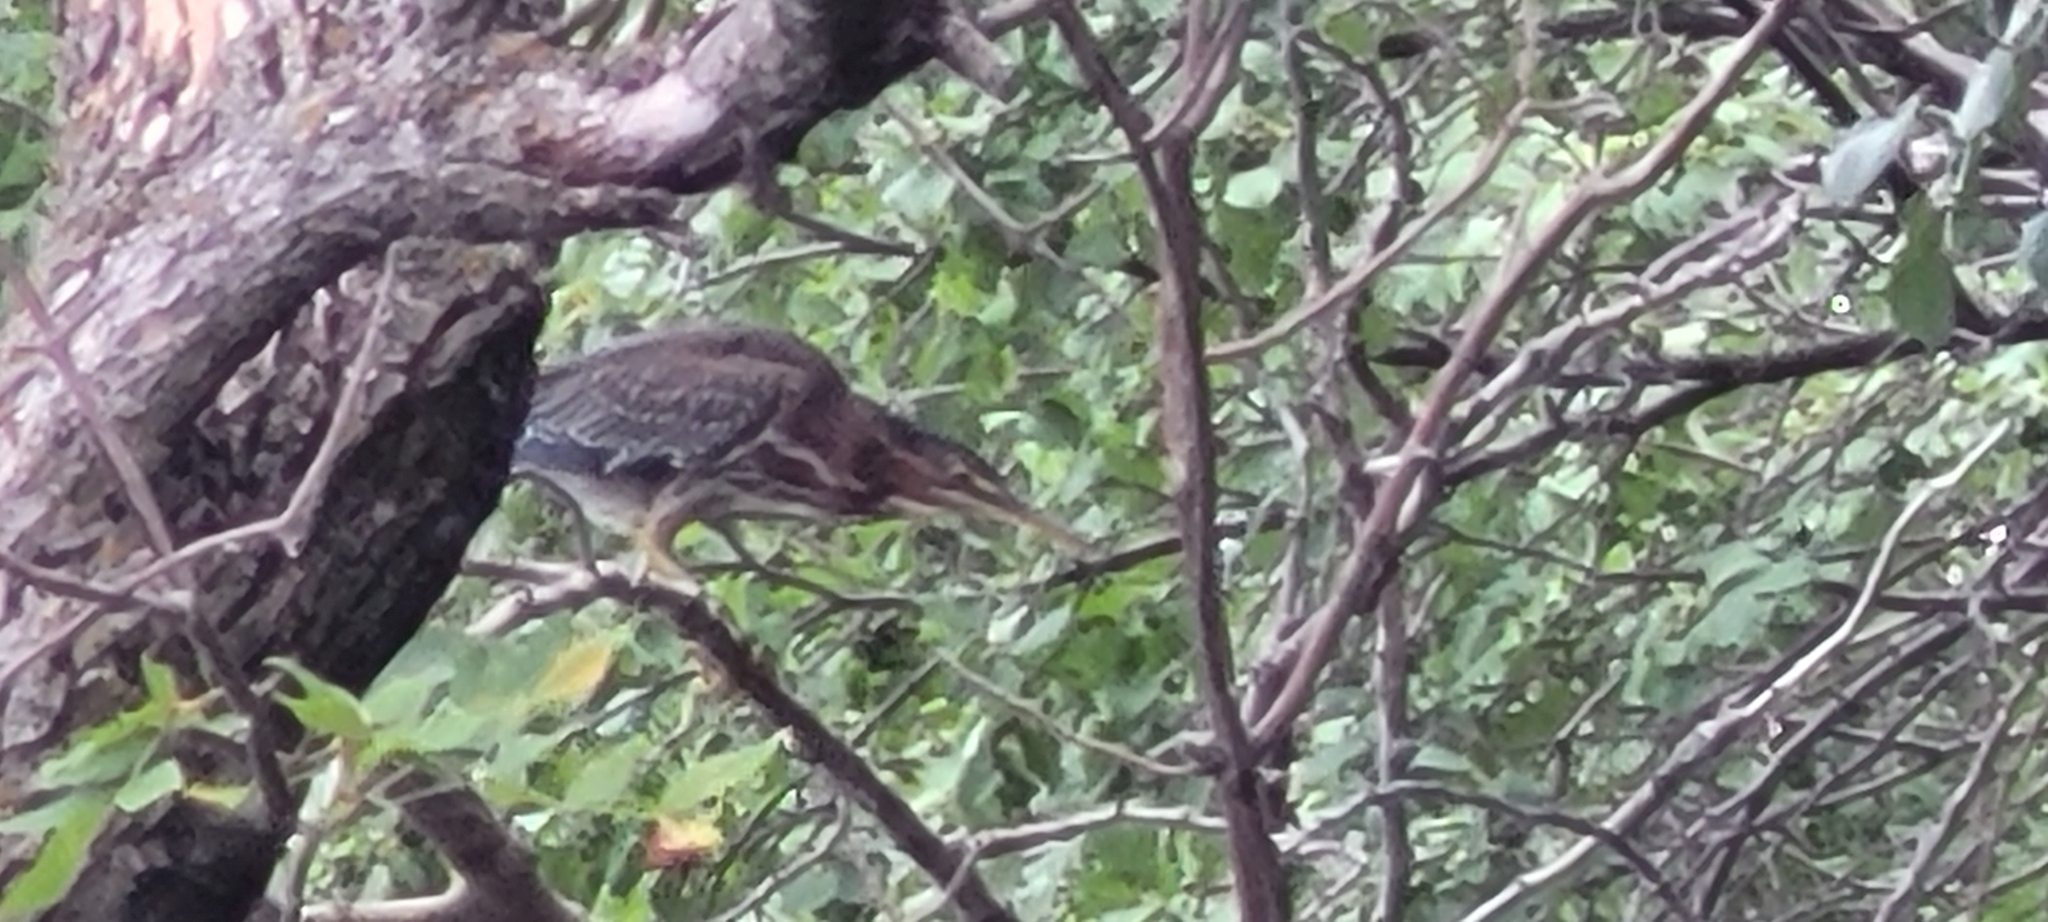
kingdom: Animalia
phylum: Chordata
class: Aves
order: Pelecaniformes
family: Ardeidae
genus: Butorides
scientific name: Butorides virescens
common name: Green heron
